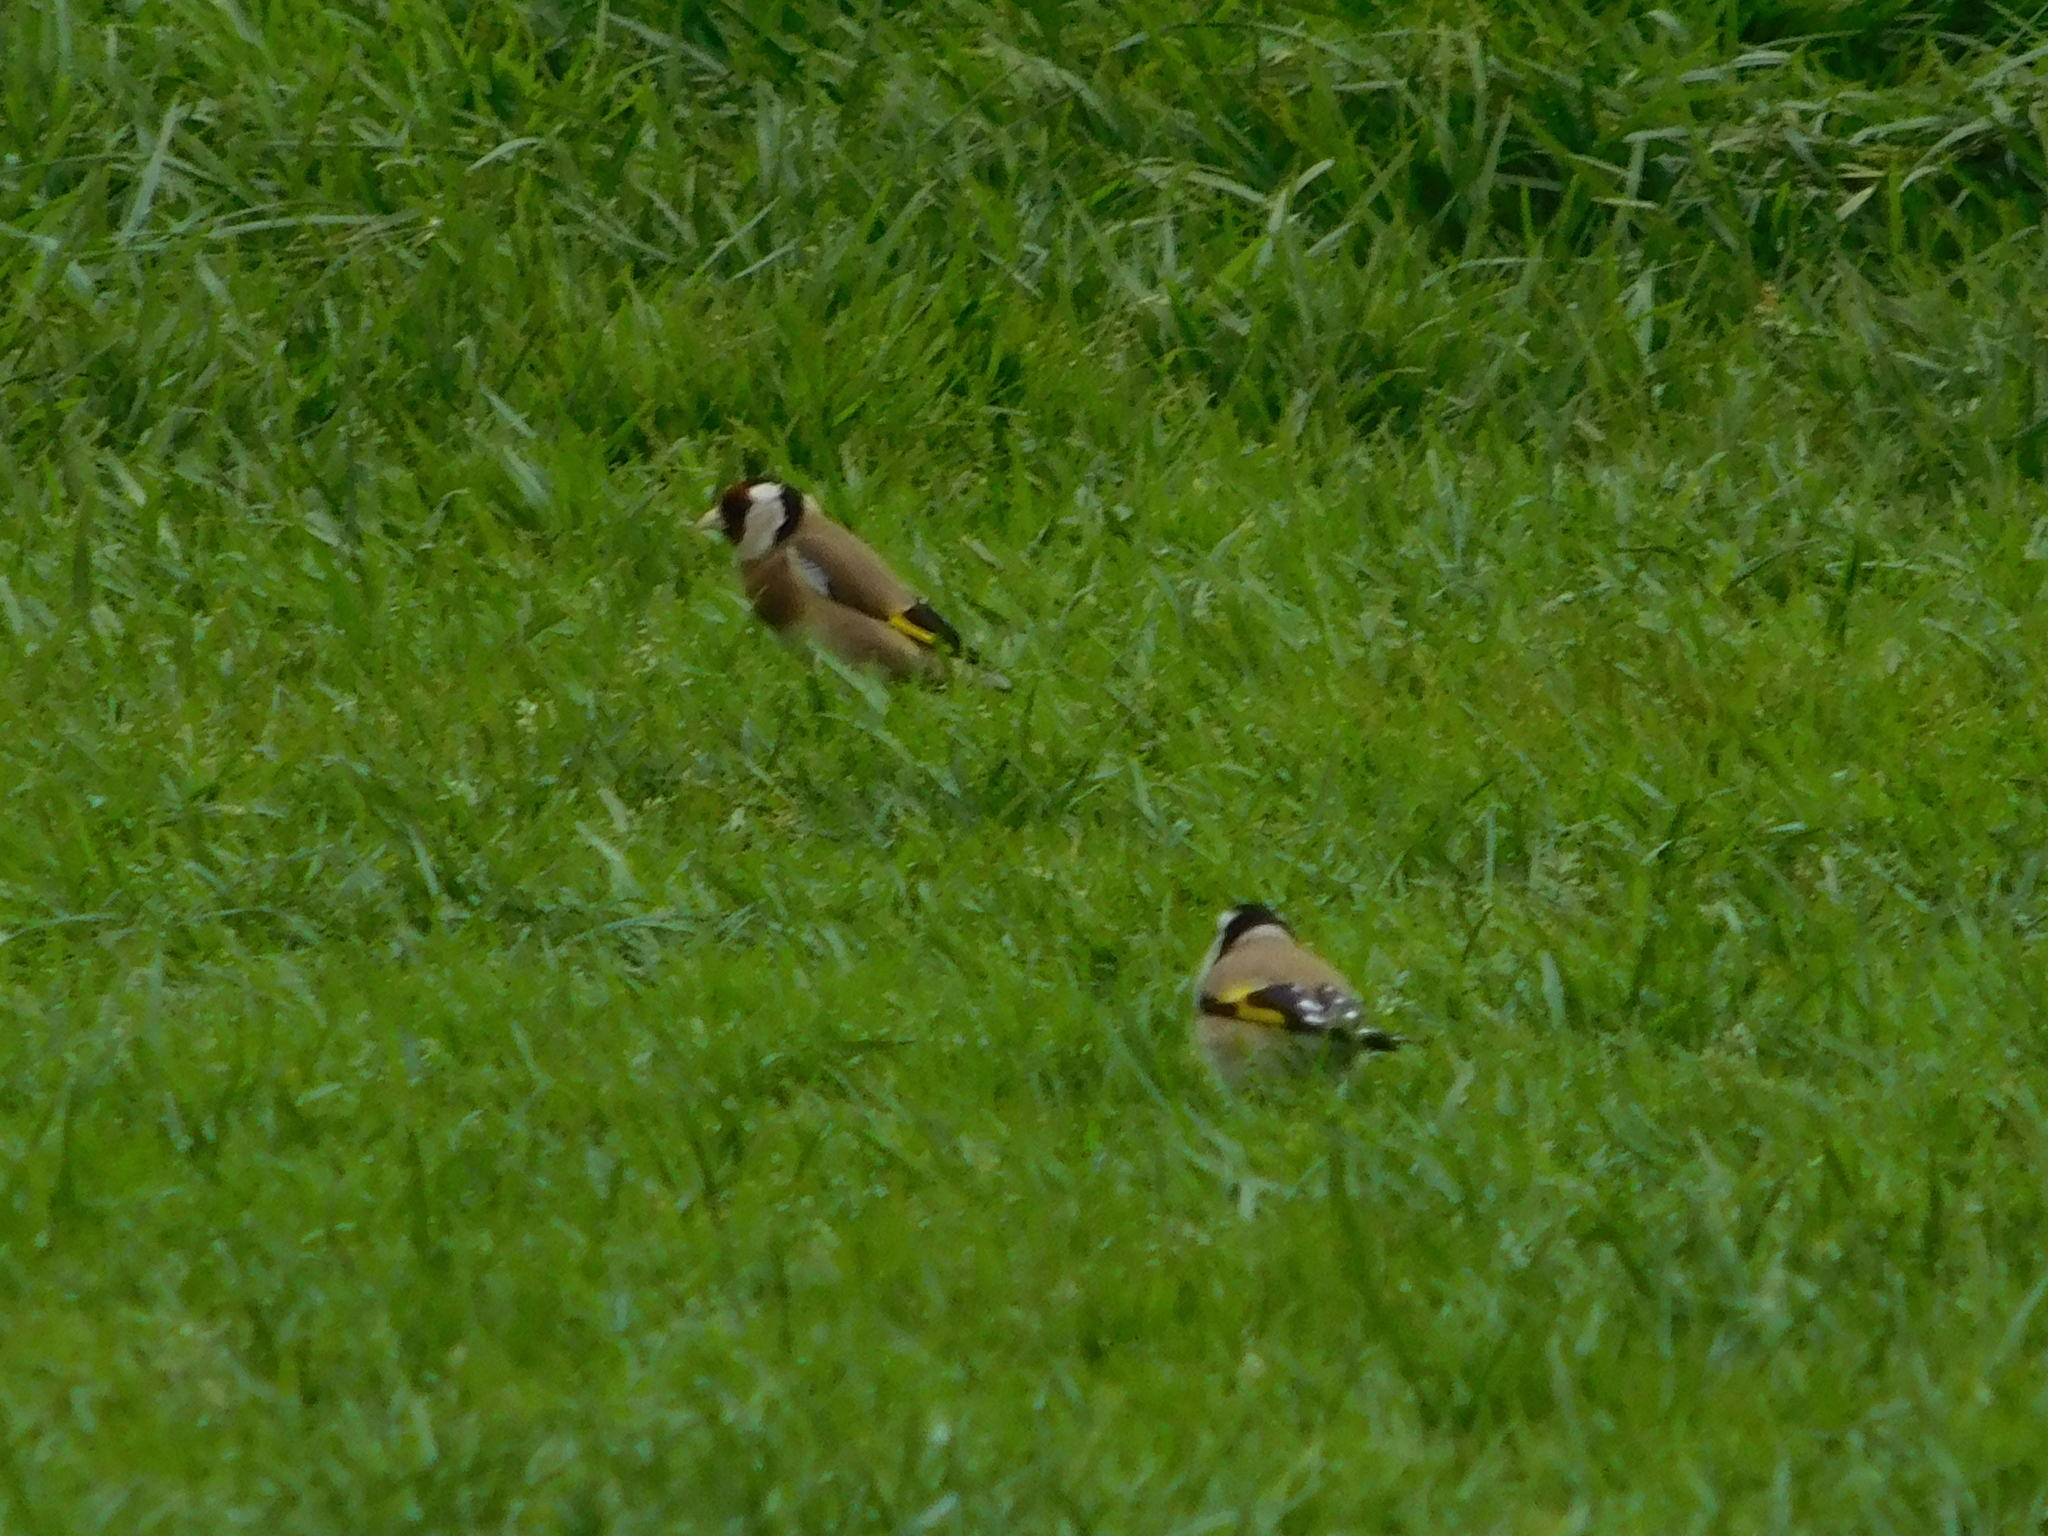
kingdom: Animalia
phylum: Chordata
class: Aves
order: Passeriformes
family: Fringillidae
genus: Carduelis
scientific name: Carduelis carduelis
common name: European goldfinch
